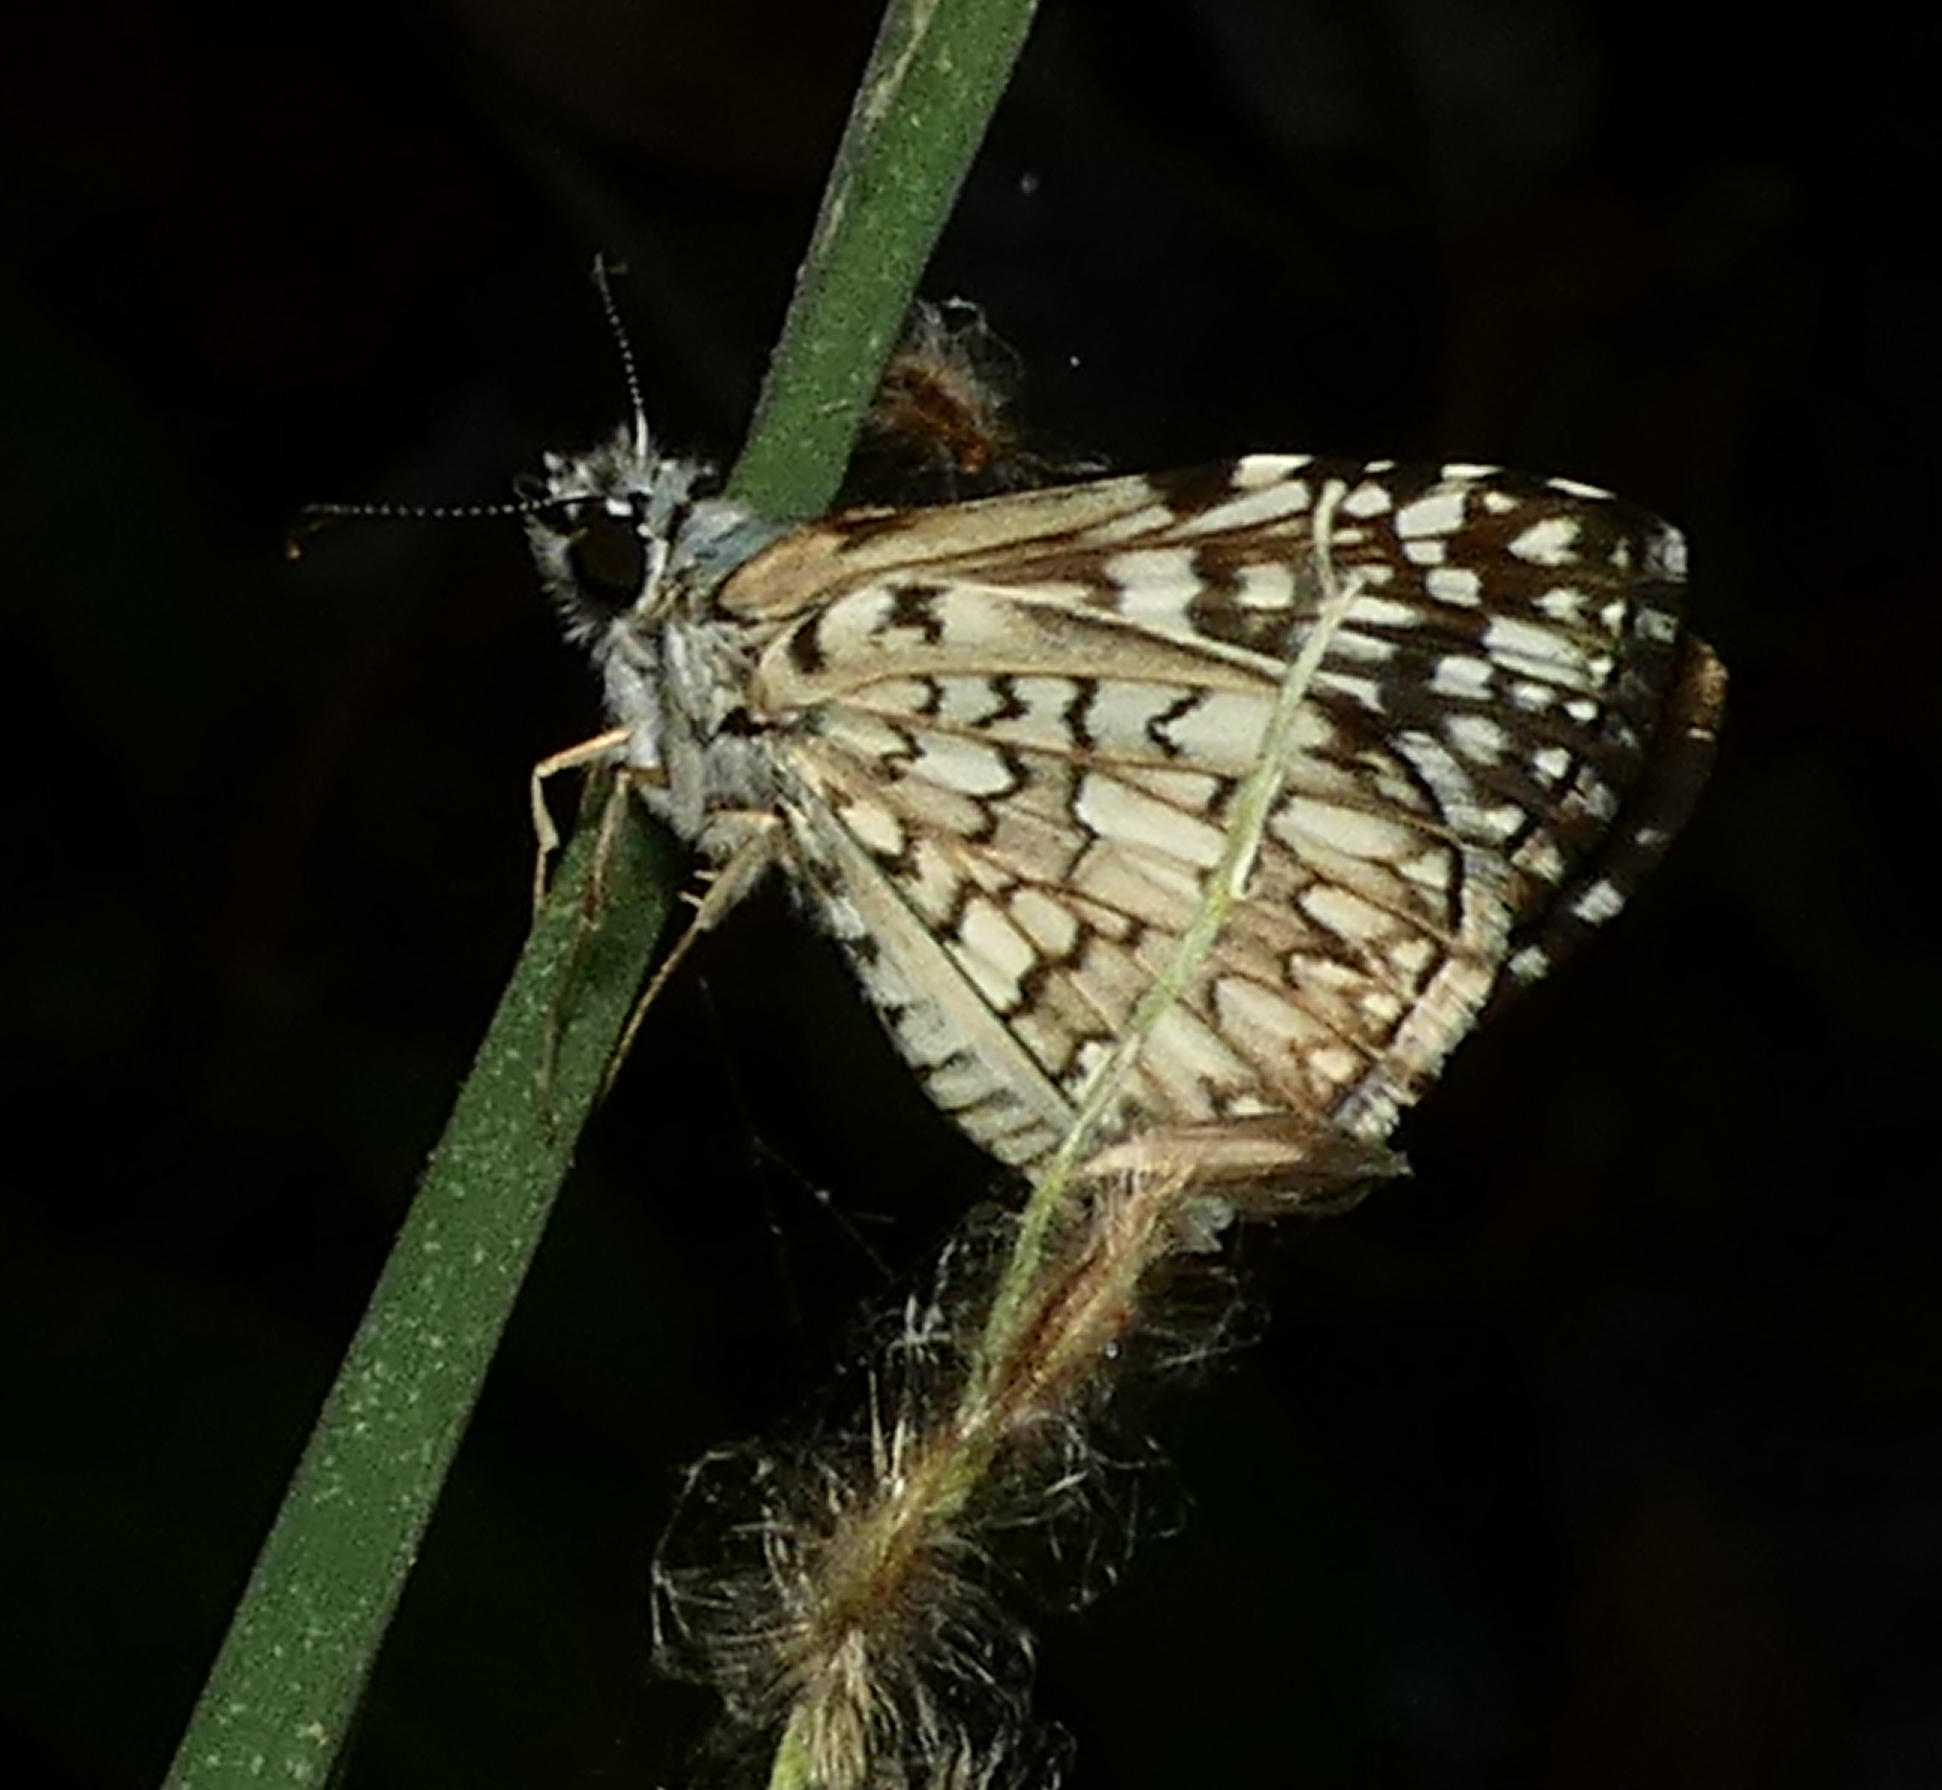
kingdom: Animalia
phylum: Arthropoda
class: Insecta
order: Lepidoptera
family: Hesperiidae
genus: Pyrgus
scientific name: Pyrgus oileus
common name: Tropical checkered-skipper
